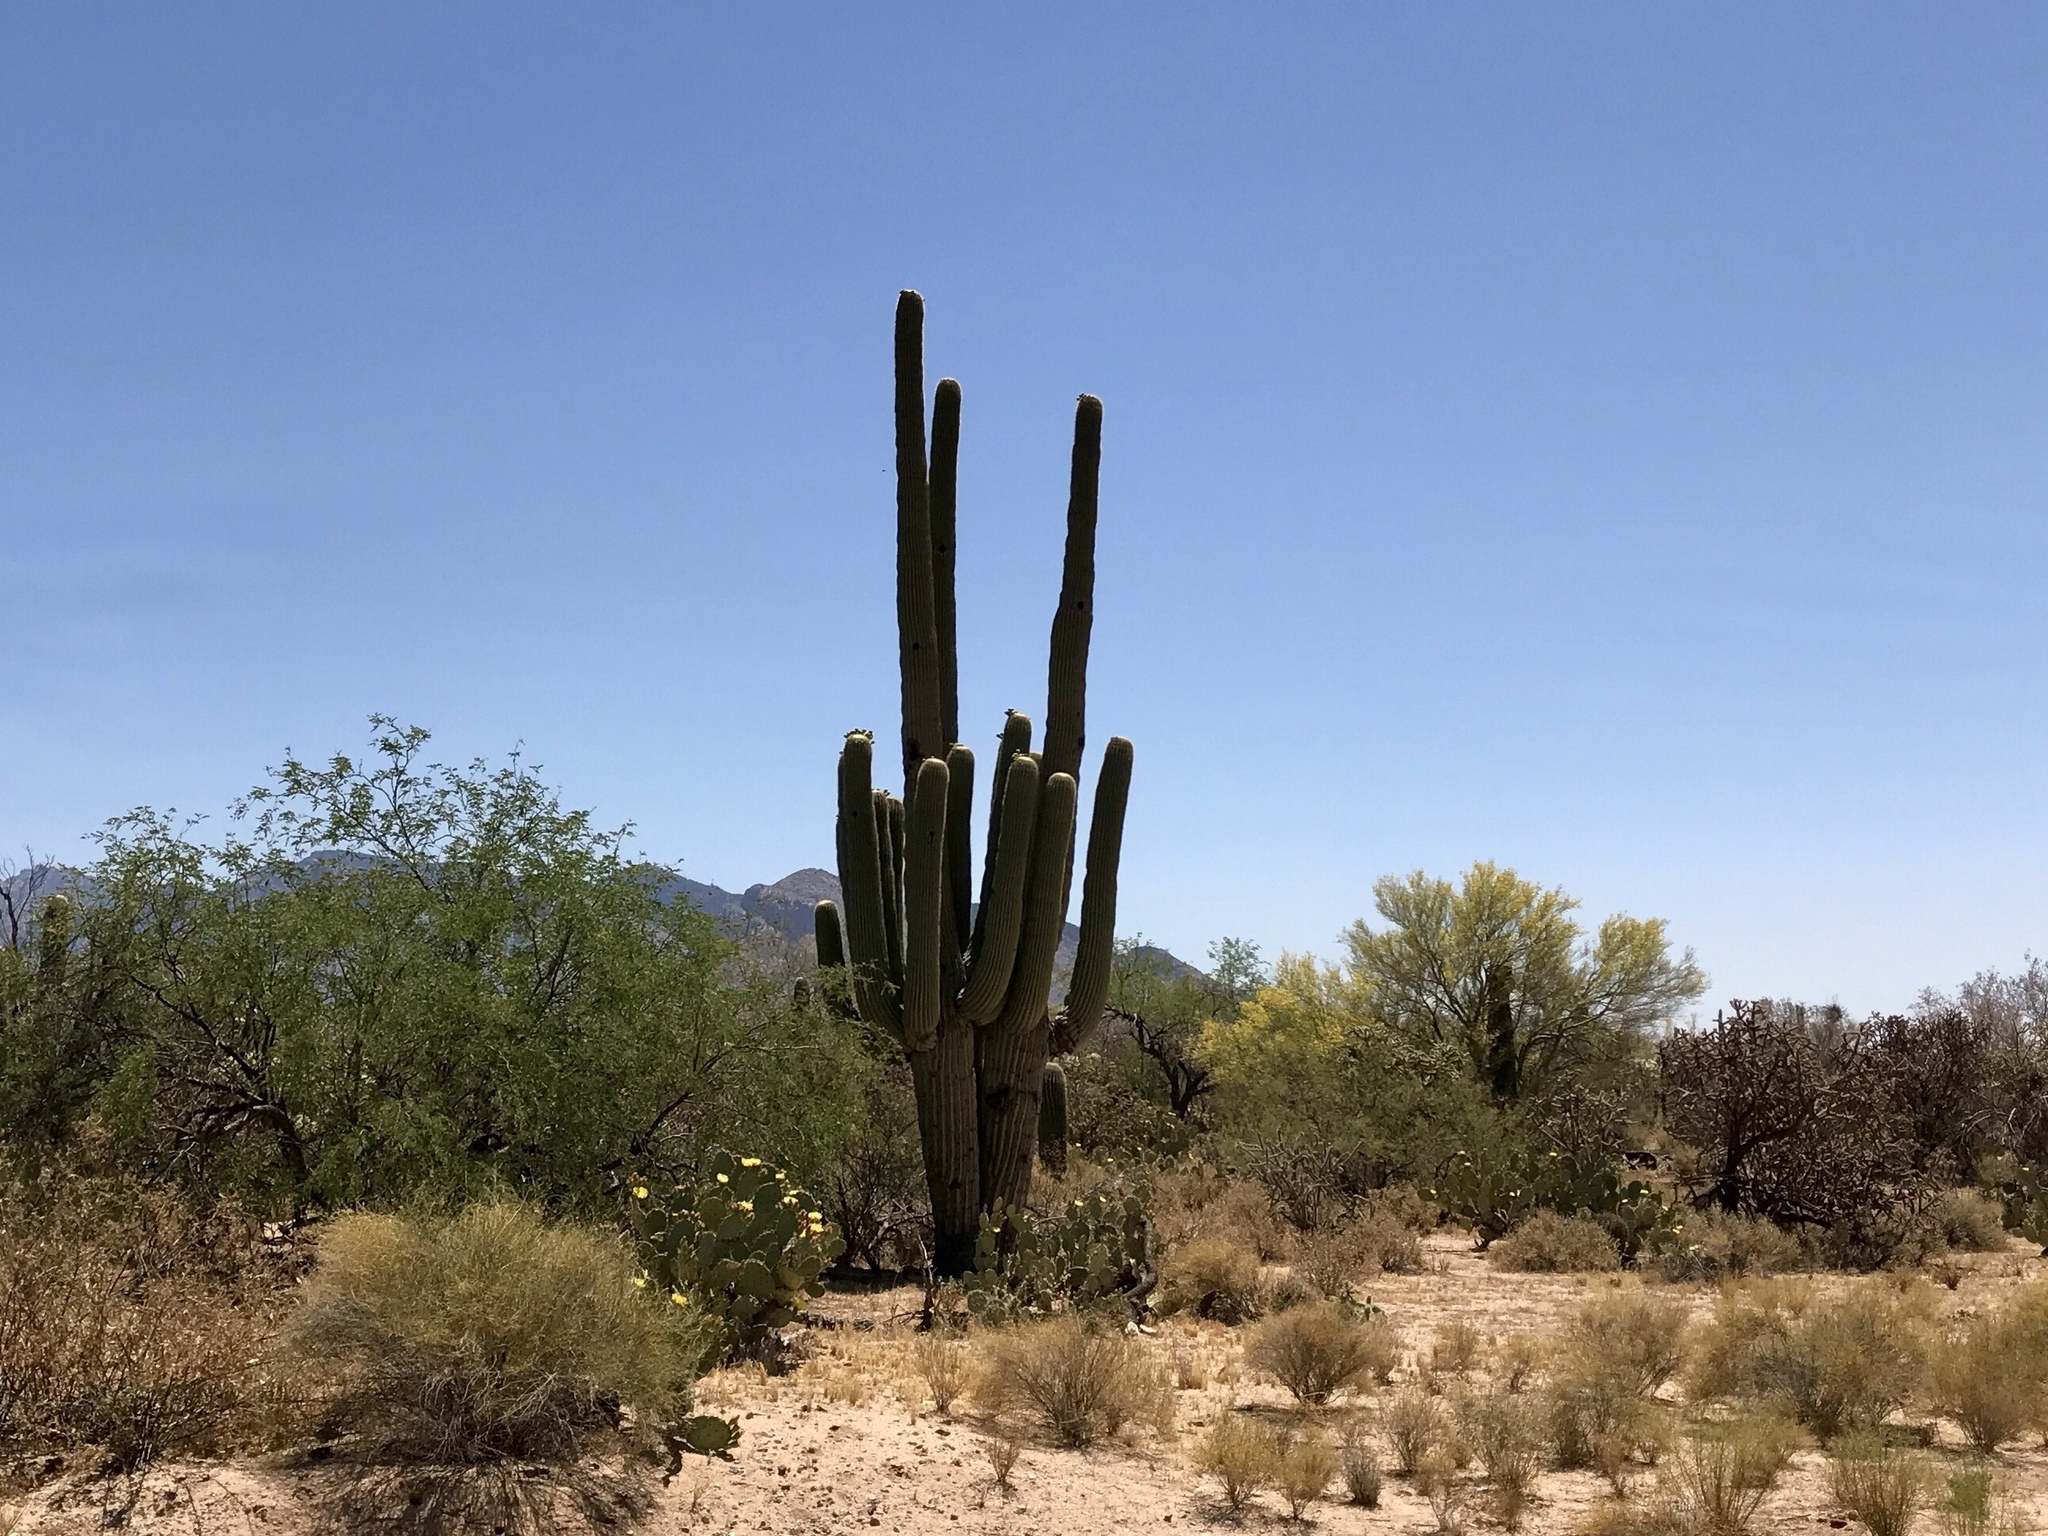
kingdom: Plantae
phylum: Tracheophyta
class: Magnoliopsida
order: Caryophyllales
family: Cactaceae
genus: Carnegiea
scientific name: Carnegiea gigantea
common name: Saguaro
